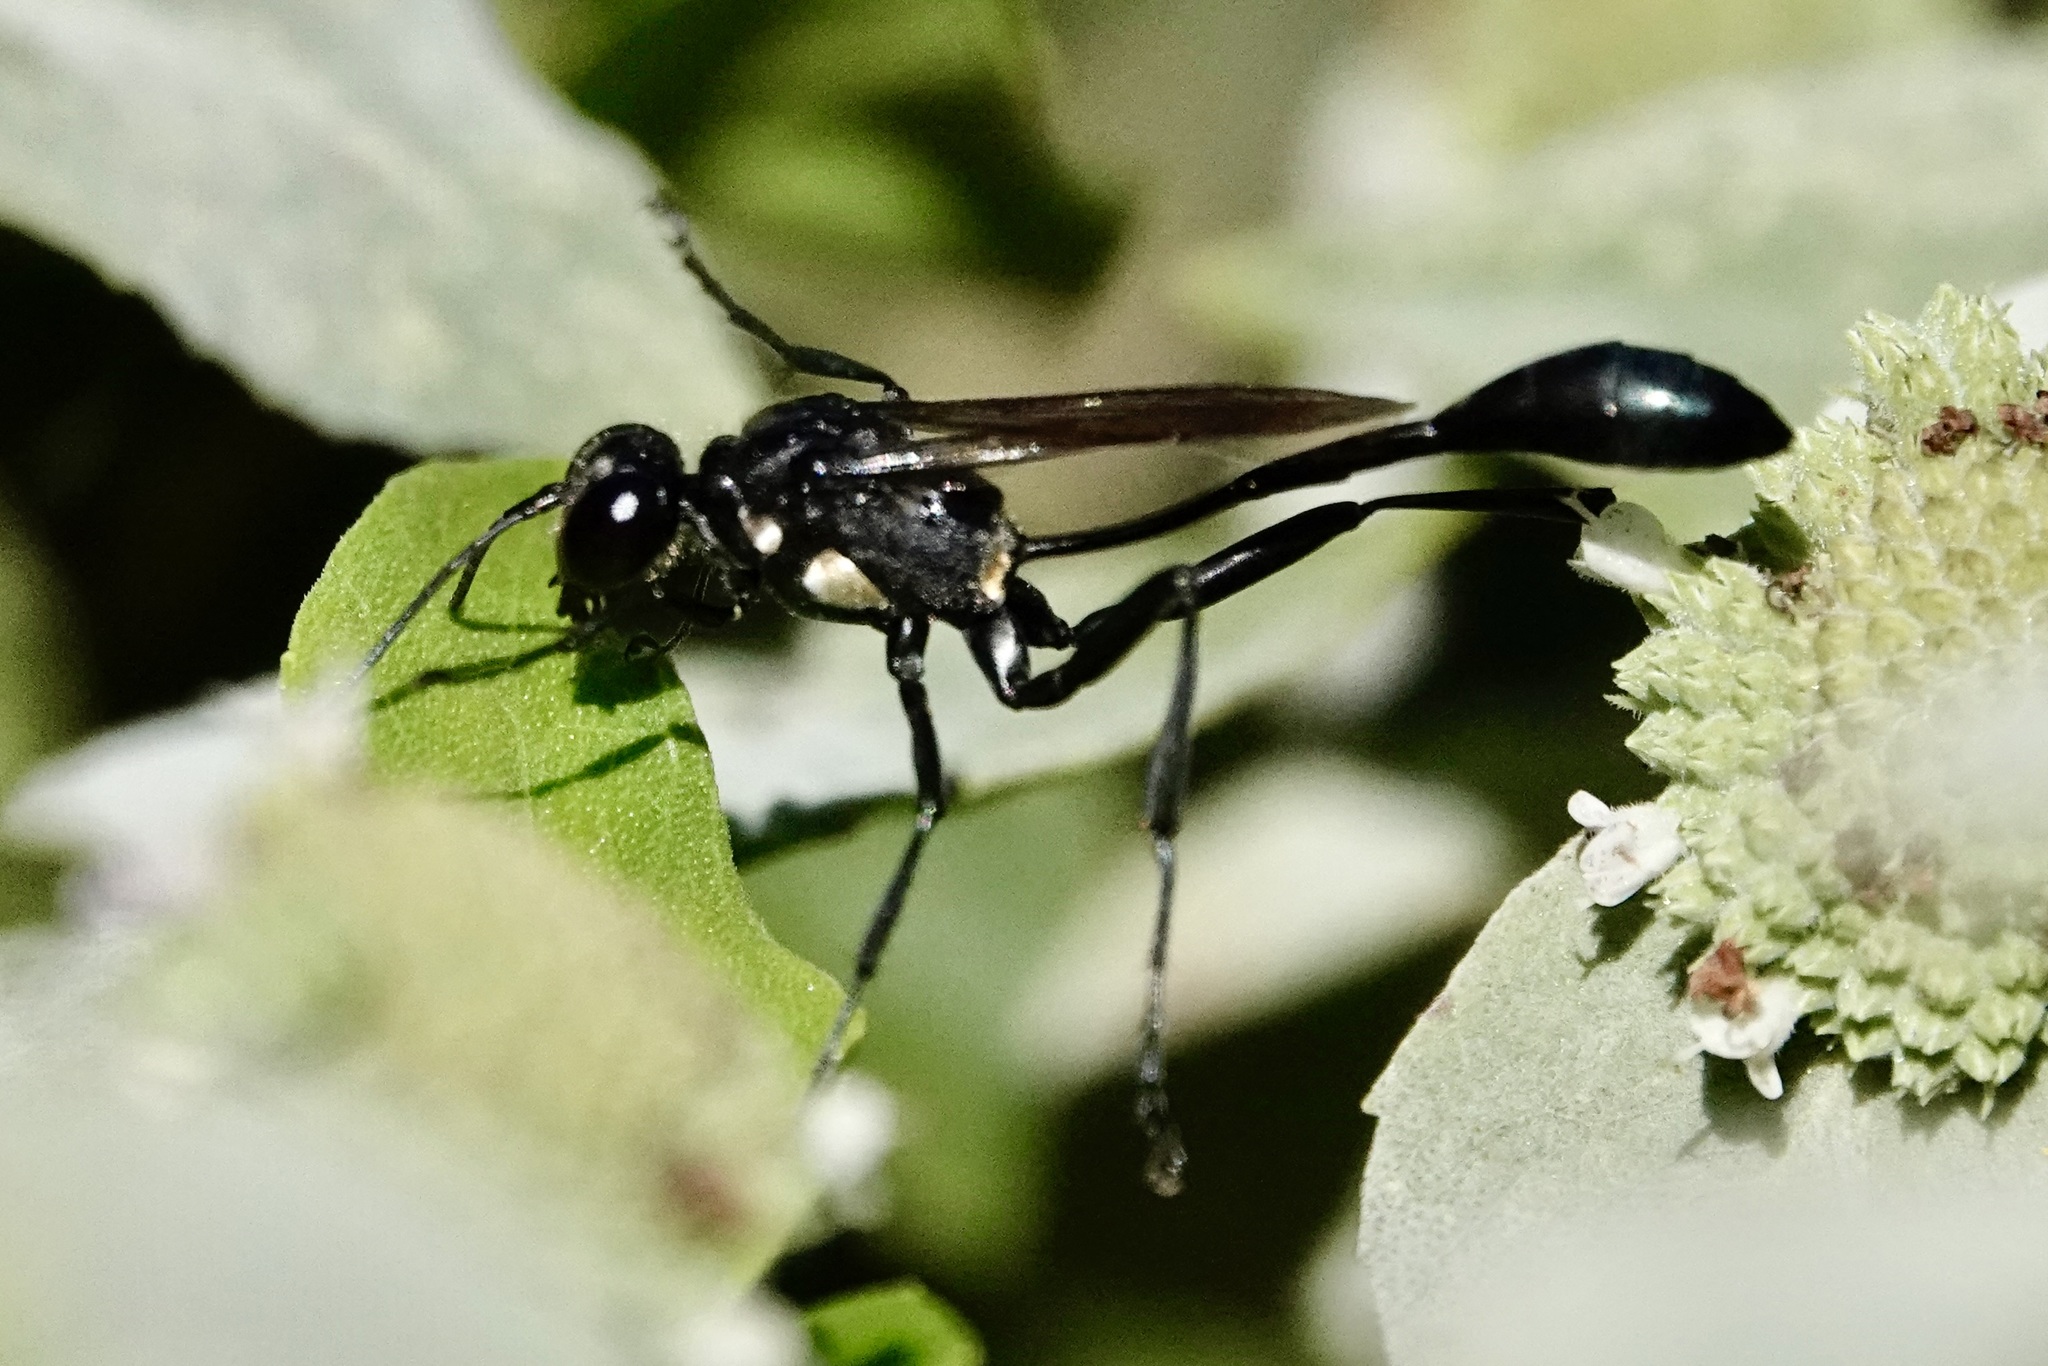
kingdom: Animalia
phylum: Arthropoda
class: Insecta
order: Hymenoptera
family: Sphecidae
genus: Eremnophila
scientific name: Eremnophila aureonotata
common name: Gold-marked thread-waisted wasp
